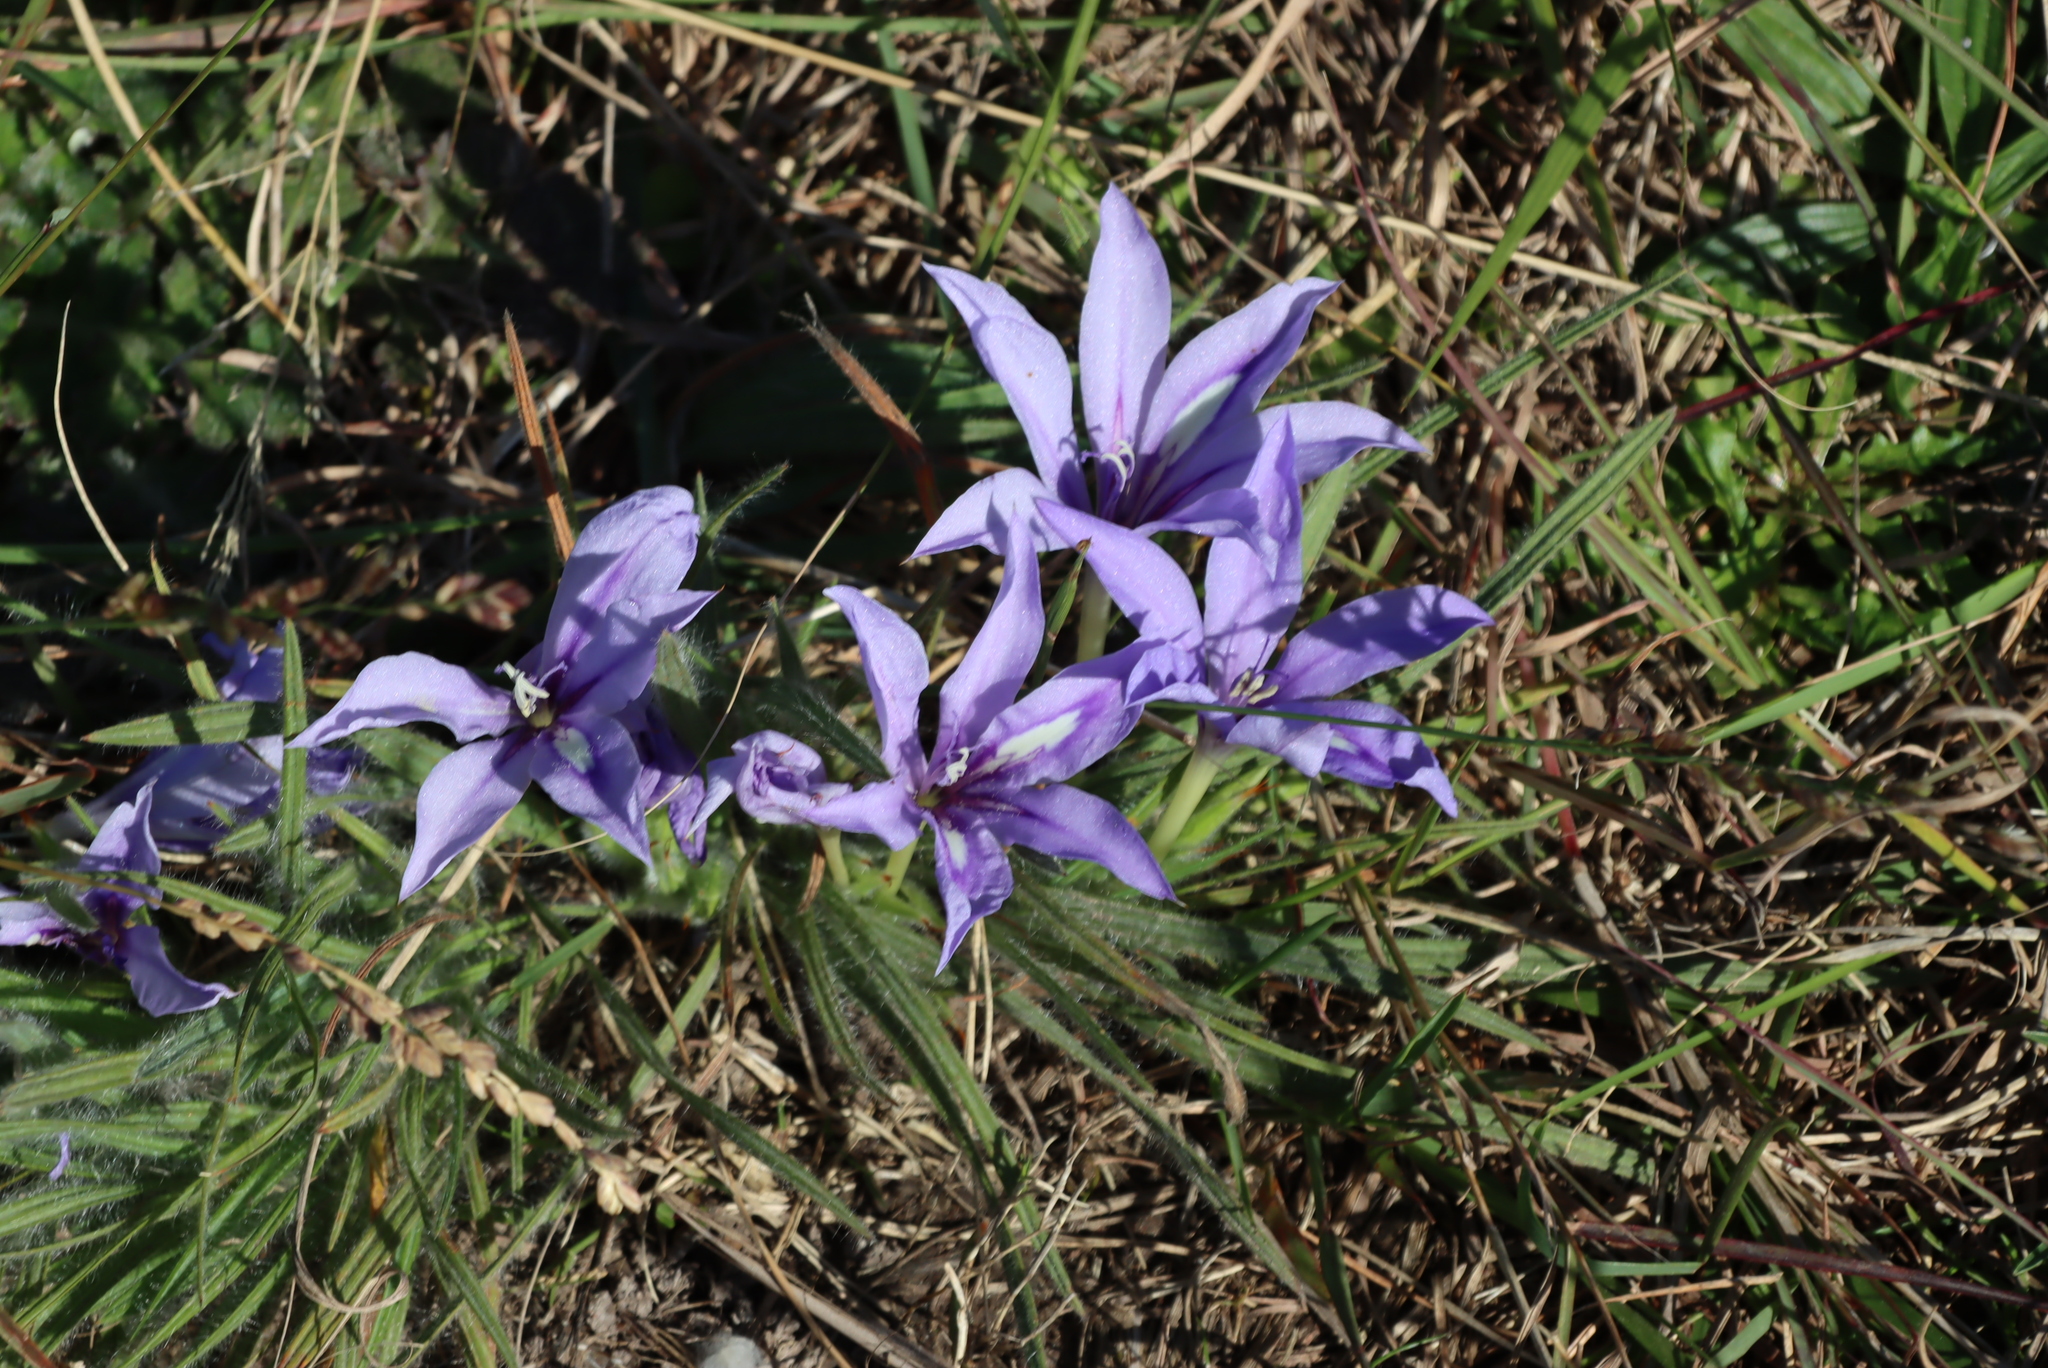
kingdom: Plantae
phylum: Tracheophyta
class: Liliopsida
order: Asparagales
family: Iridaceae
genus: Babiana
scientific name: Babiana sambucina
